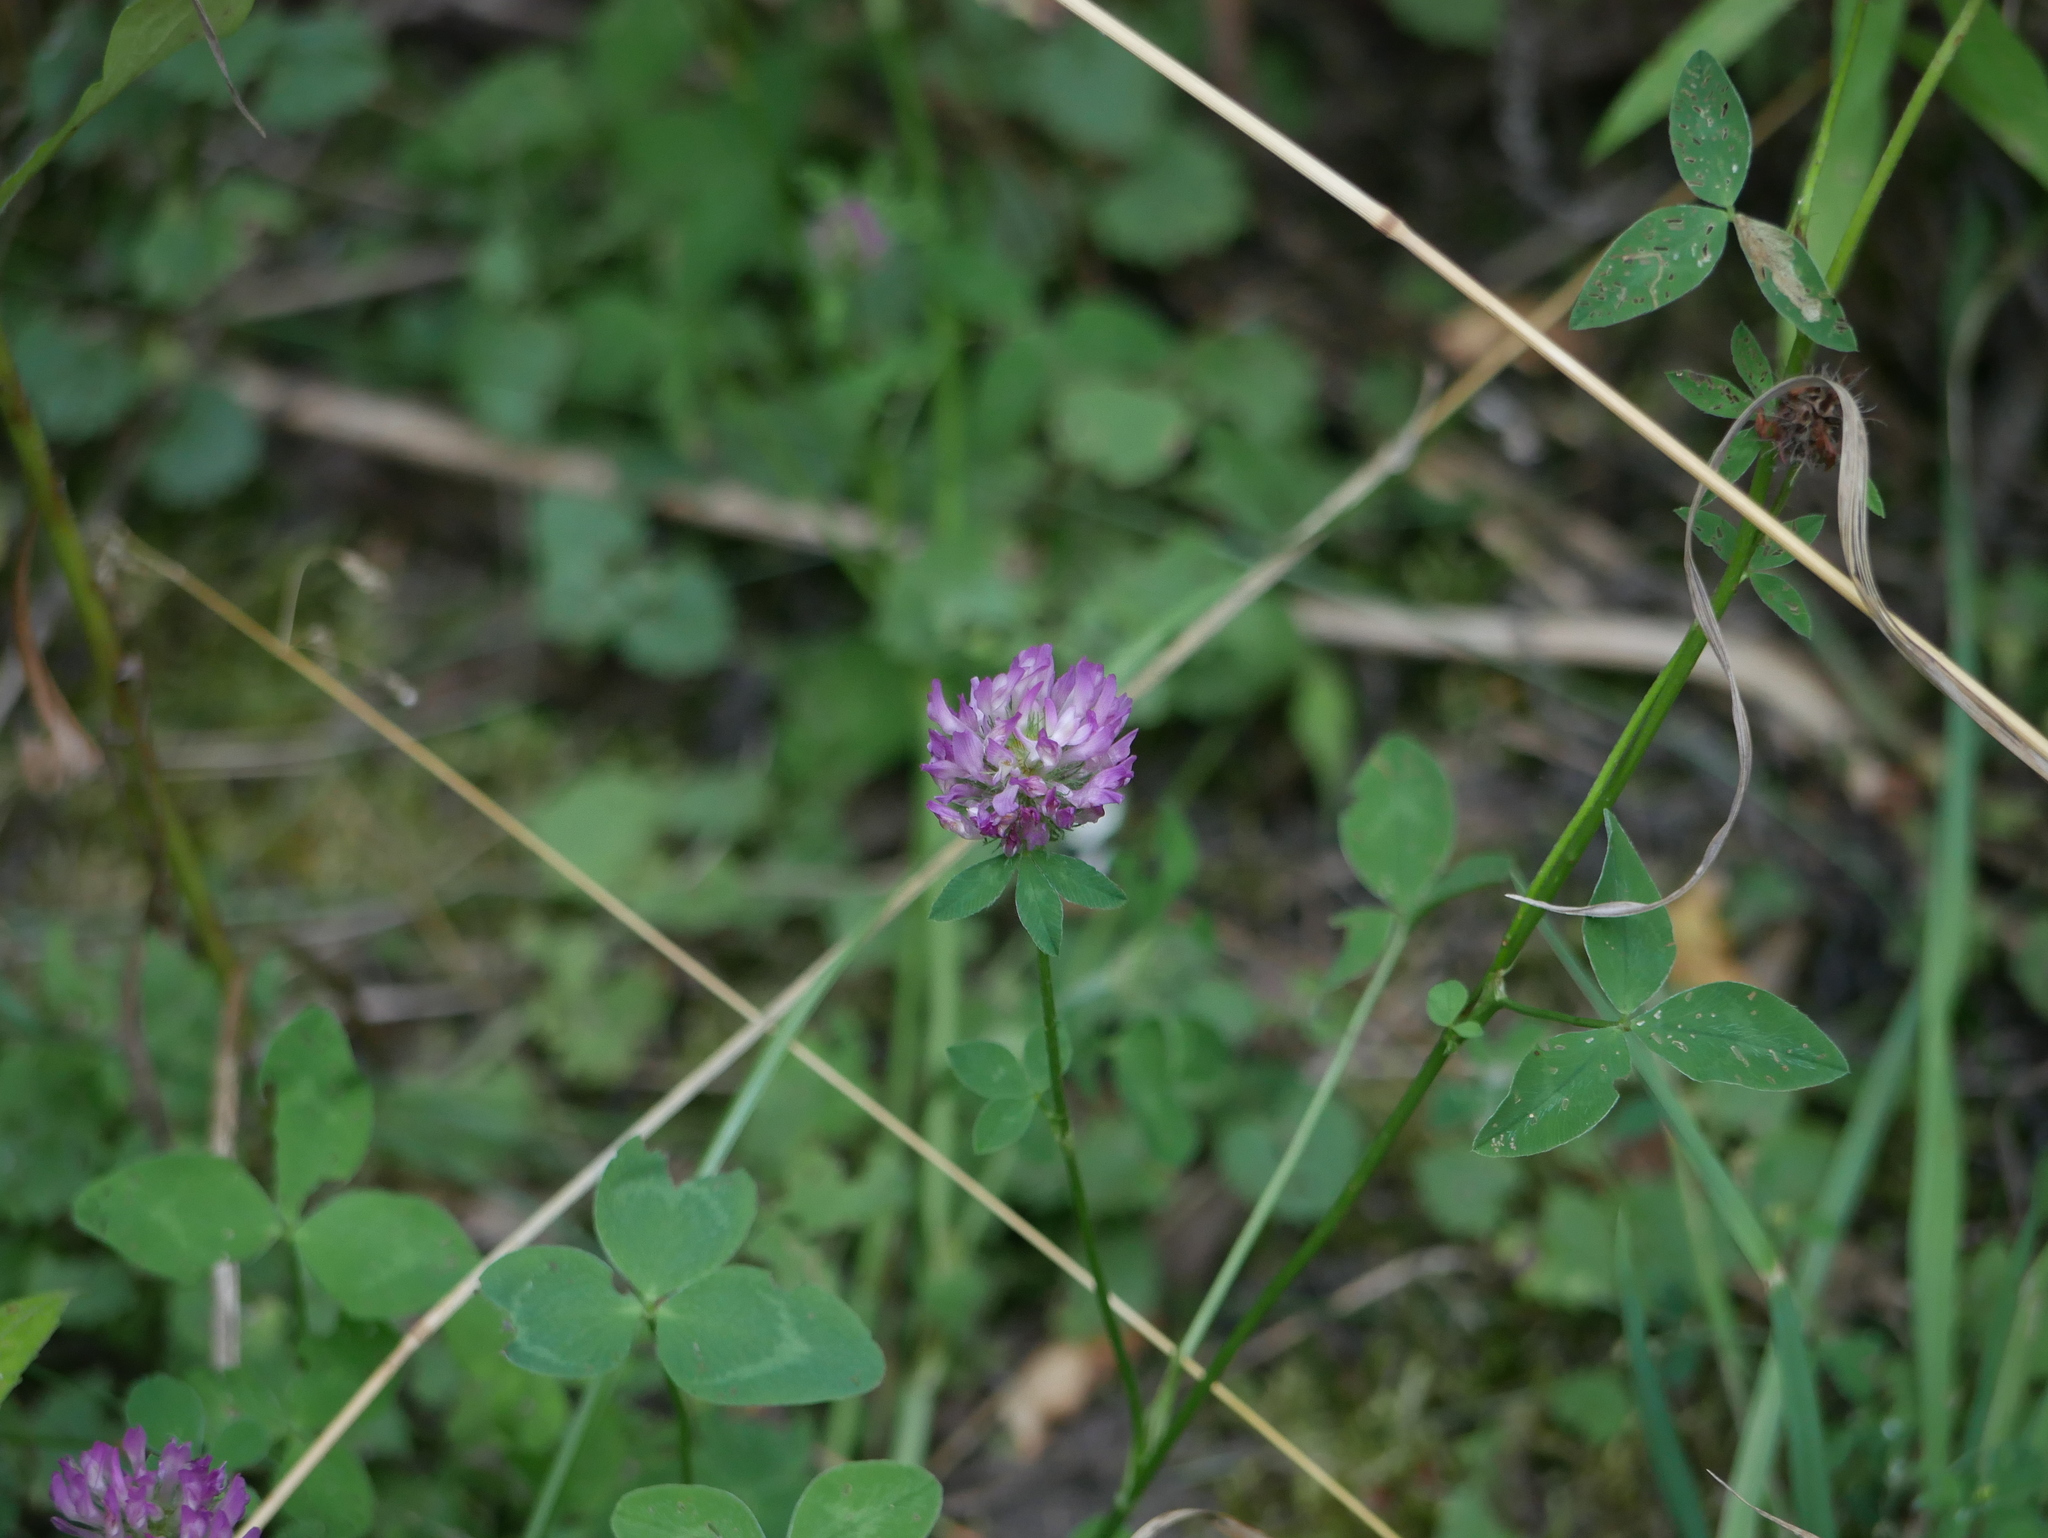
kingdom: Plantae
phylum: Tracheophyta
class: Magnoliopsida
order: Fabales
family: Fabaceae
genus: Trifolium
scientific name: Trifolium pratense
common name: Red clover
